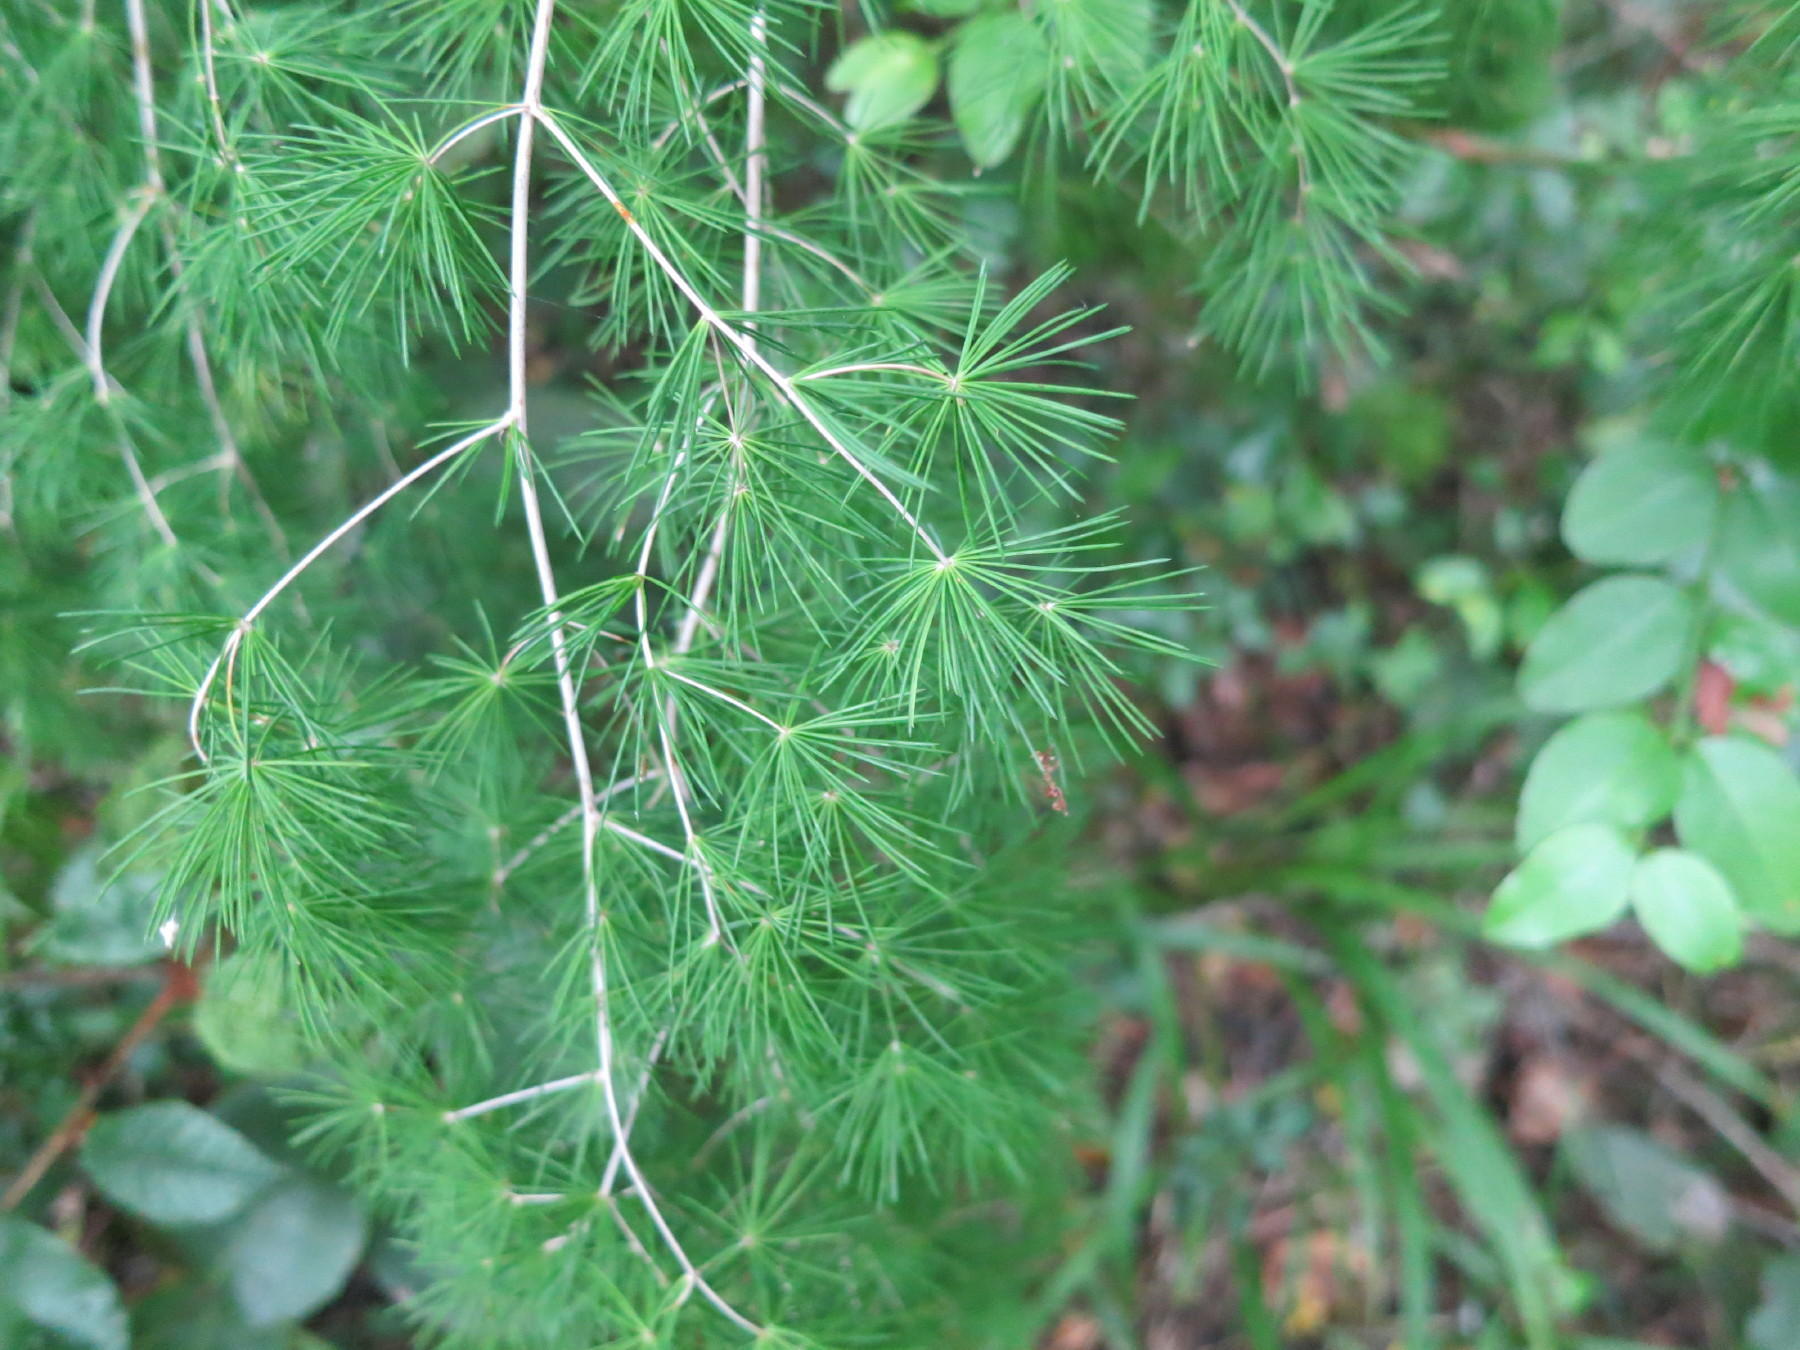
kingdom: Plantae
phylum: Tracheophyta
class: Liliopsida
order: Asparagales
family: Asparagaceae
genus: Asparagus
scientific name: Asparagus macowanii
